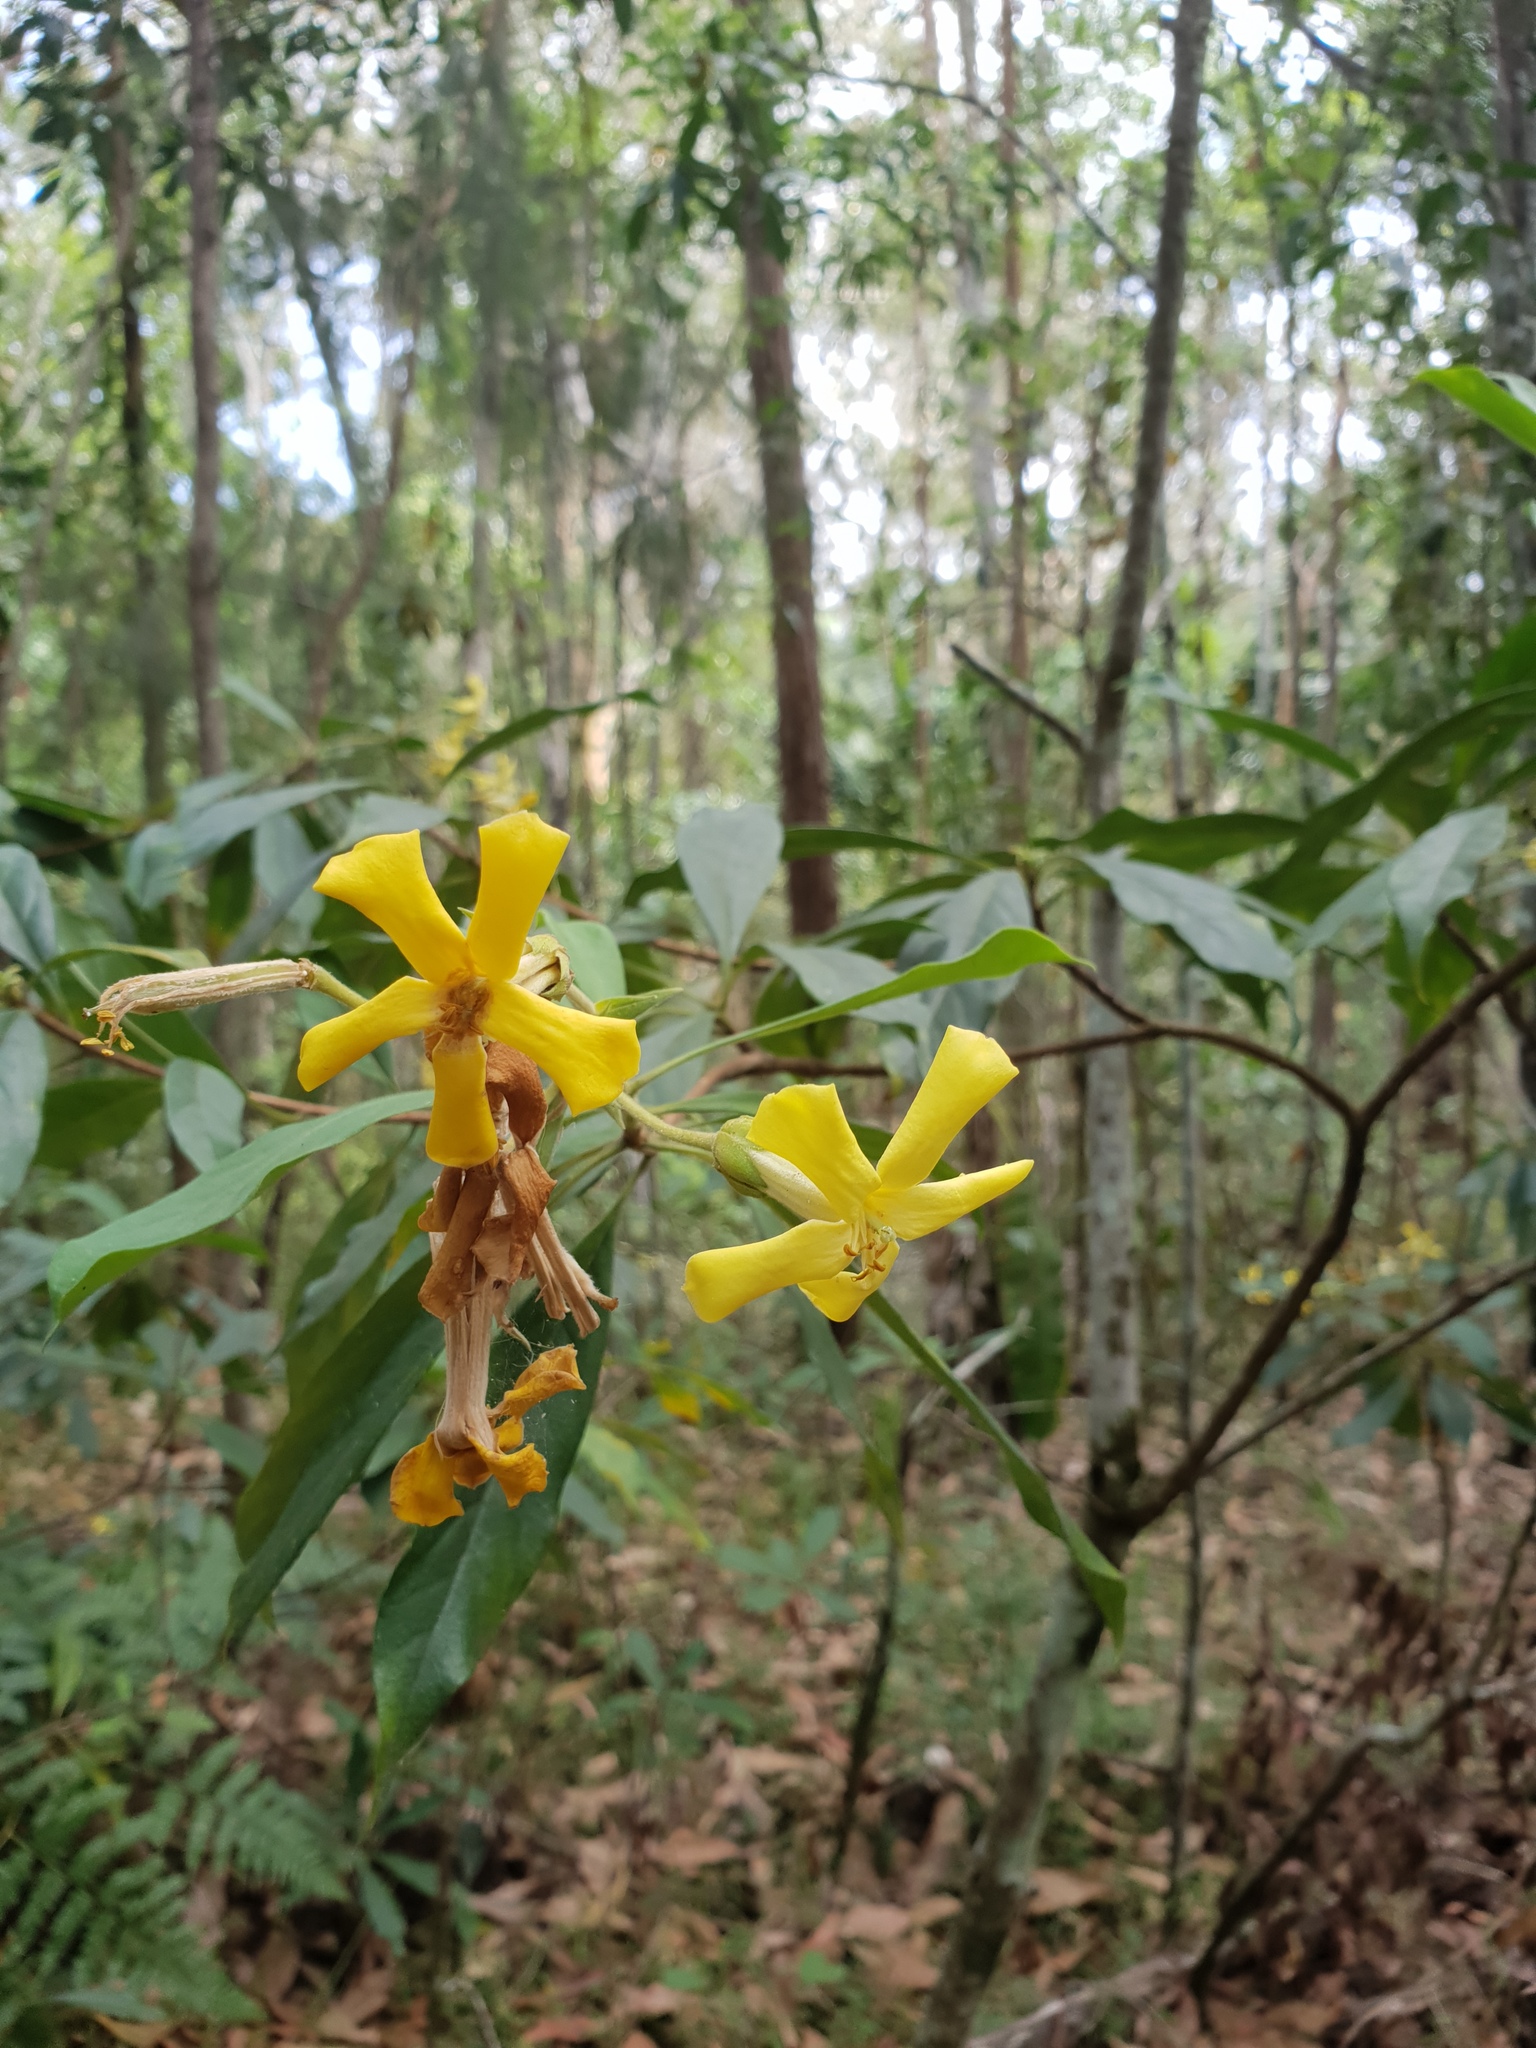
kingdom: Plantae
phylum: Tracheophyta
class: Magnoliopsida
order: Apiales
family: Pittosporaceae
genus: Hymenosporum
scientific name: Hymenosporum flavum
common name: Native frangipani
